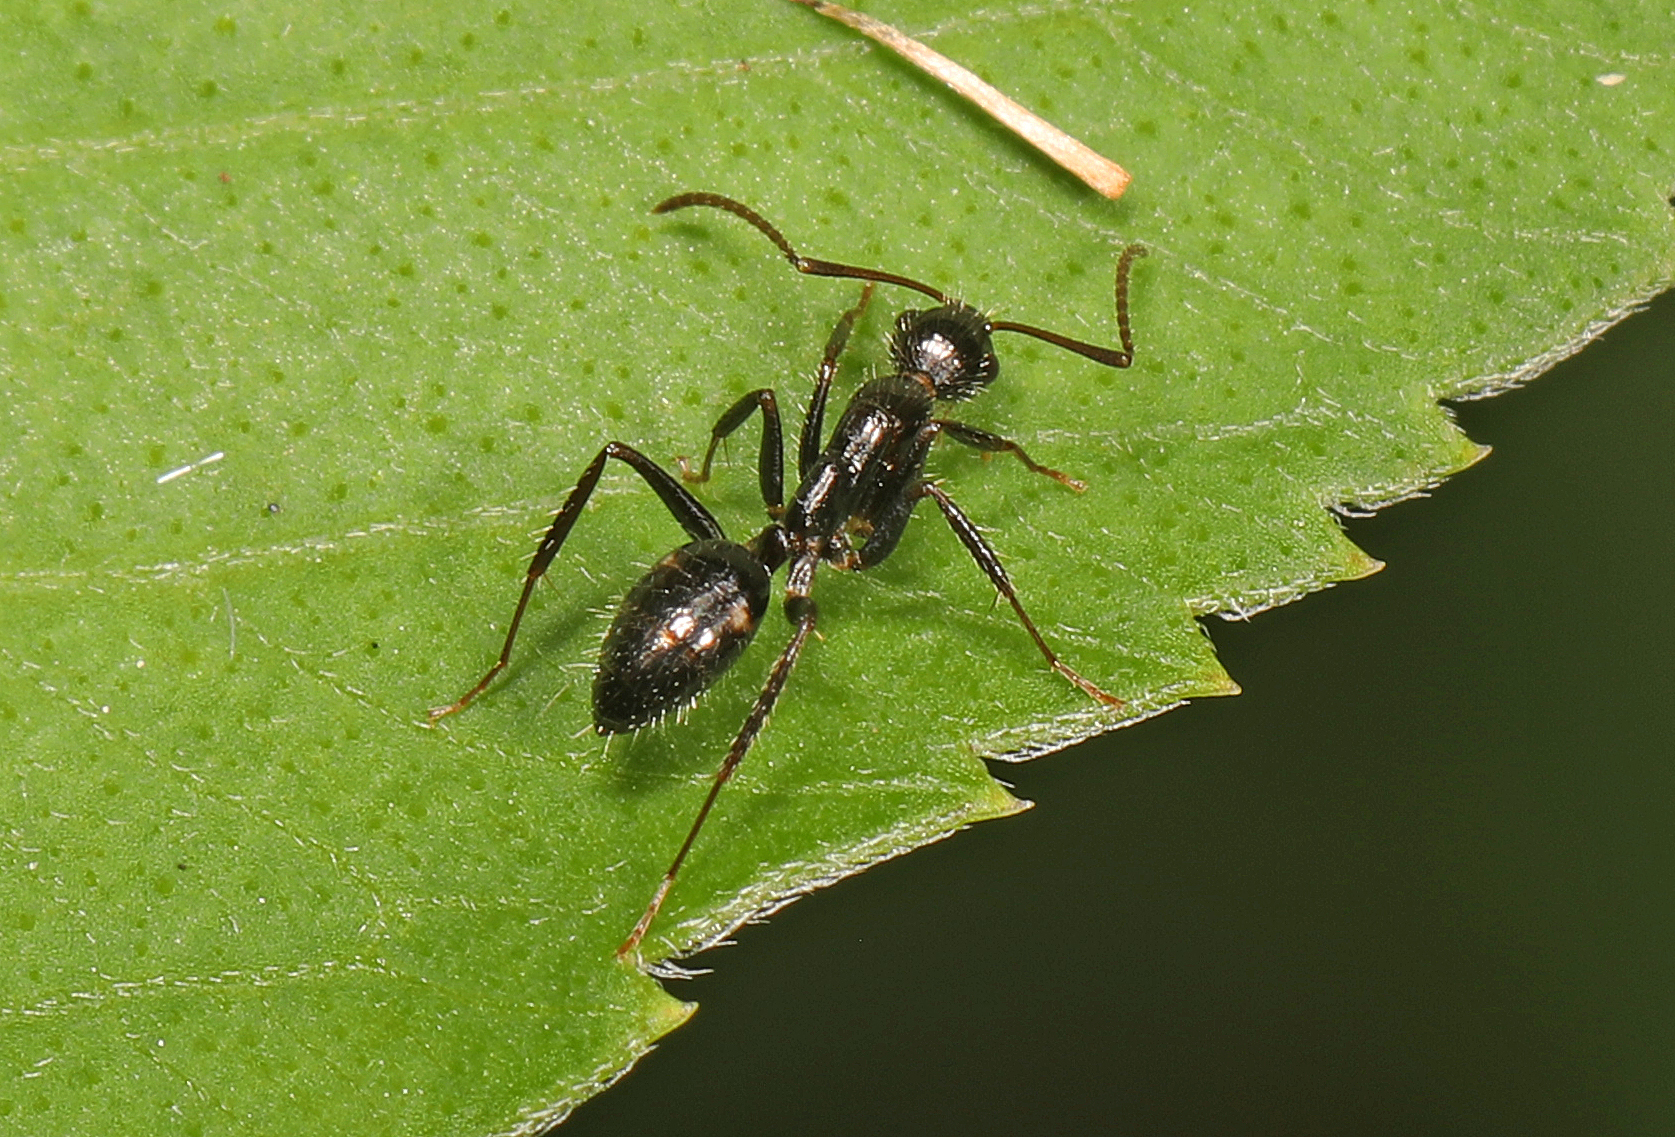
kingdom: Animalia
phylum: Arthropoda
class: Insecta
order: Hymenoptera
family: Formicidae
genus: Camponotus
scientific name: Camponotus sexguttatus
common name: Neotropical carpenter ant
